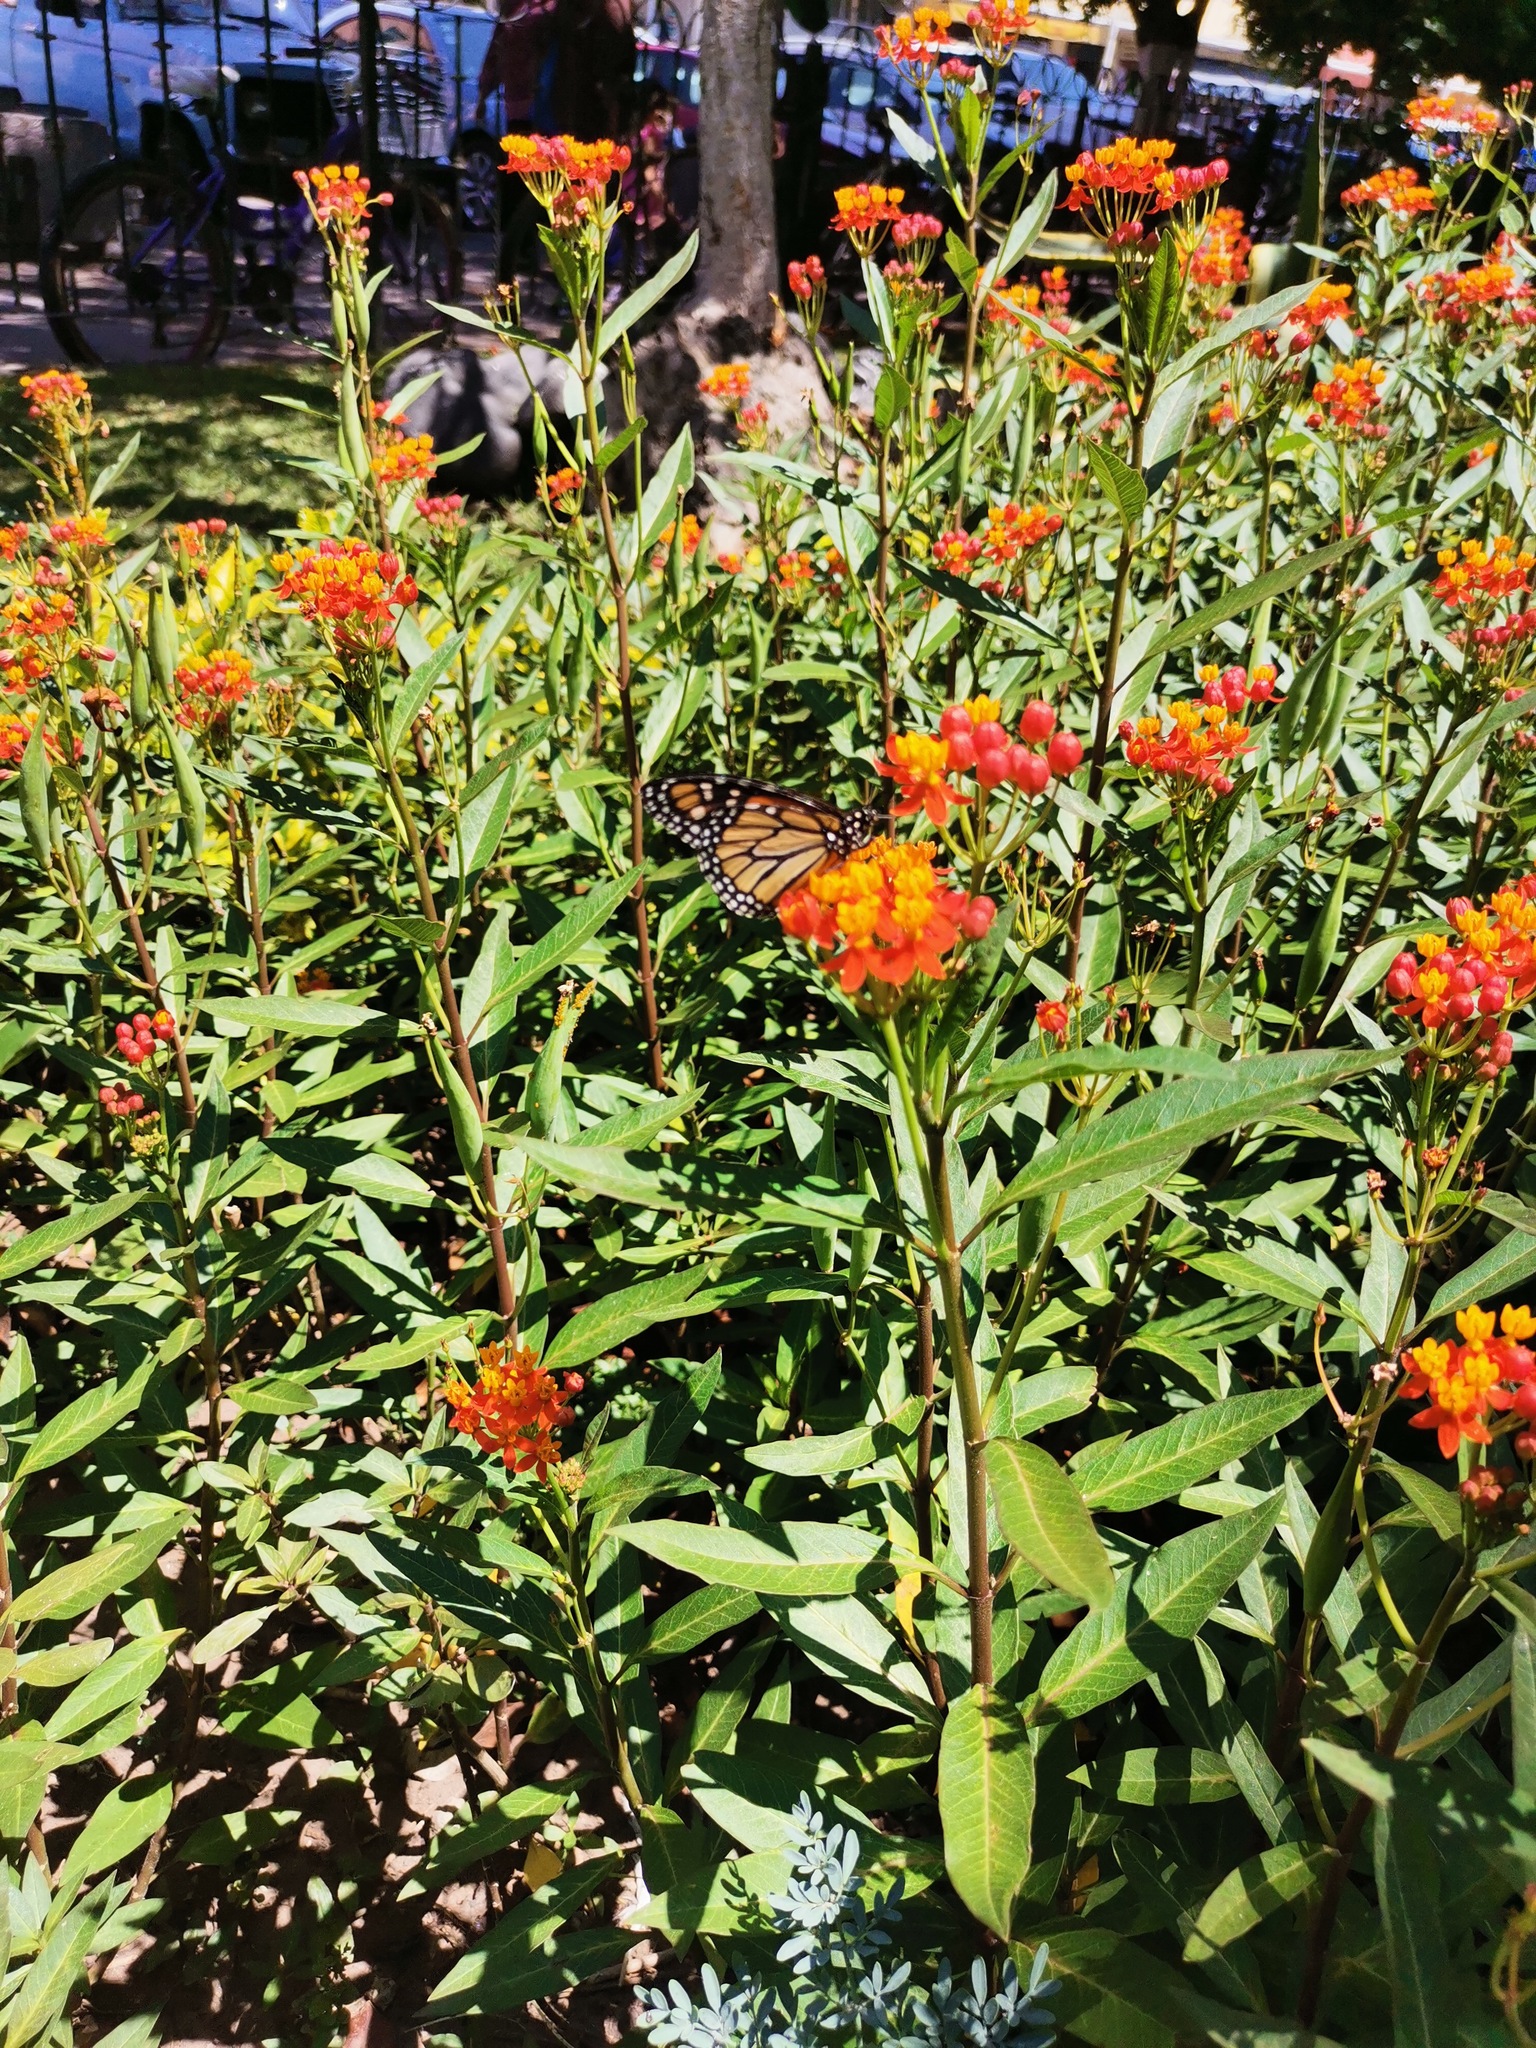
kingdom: Animalia
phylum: Arthropoda
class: Insecta
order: Lepidoptera
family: Nymphalidae
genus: Danaus
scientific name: Danaus plexippus
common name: Monarch
